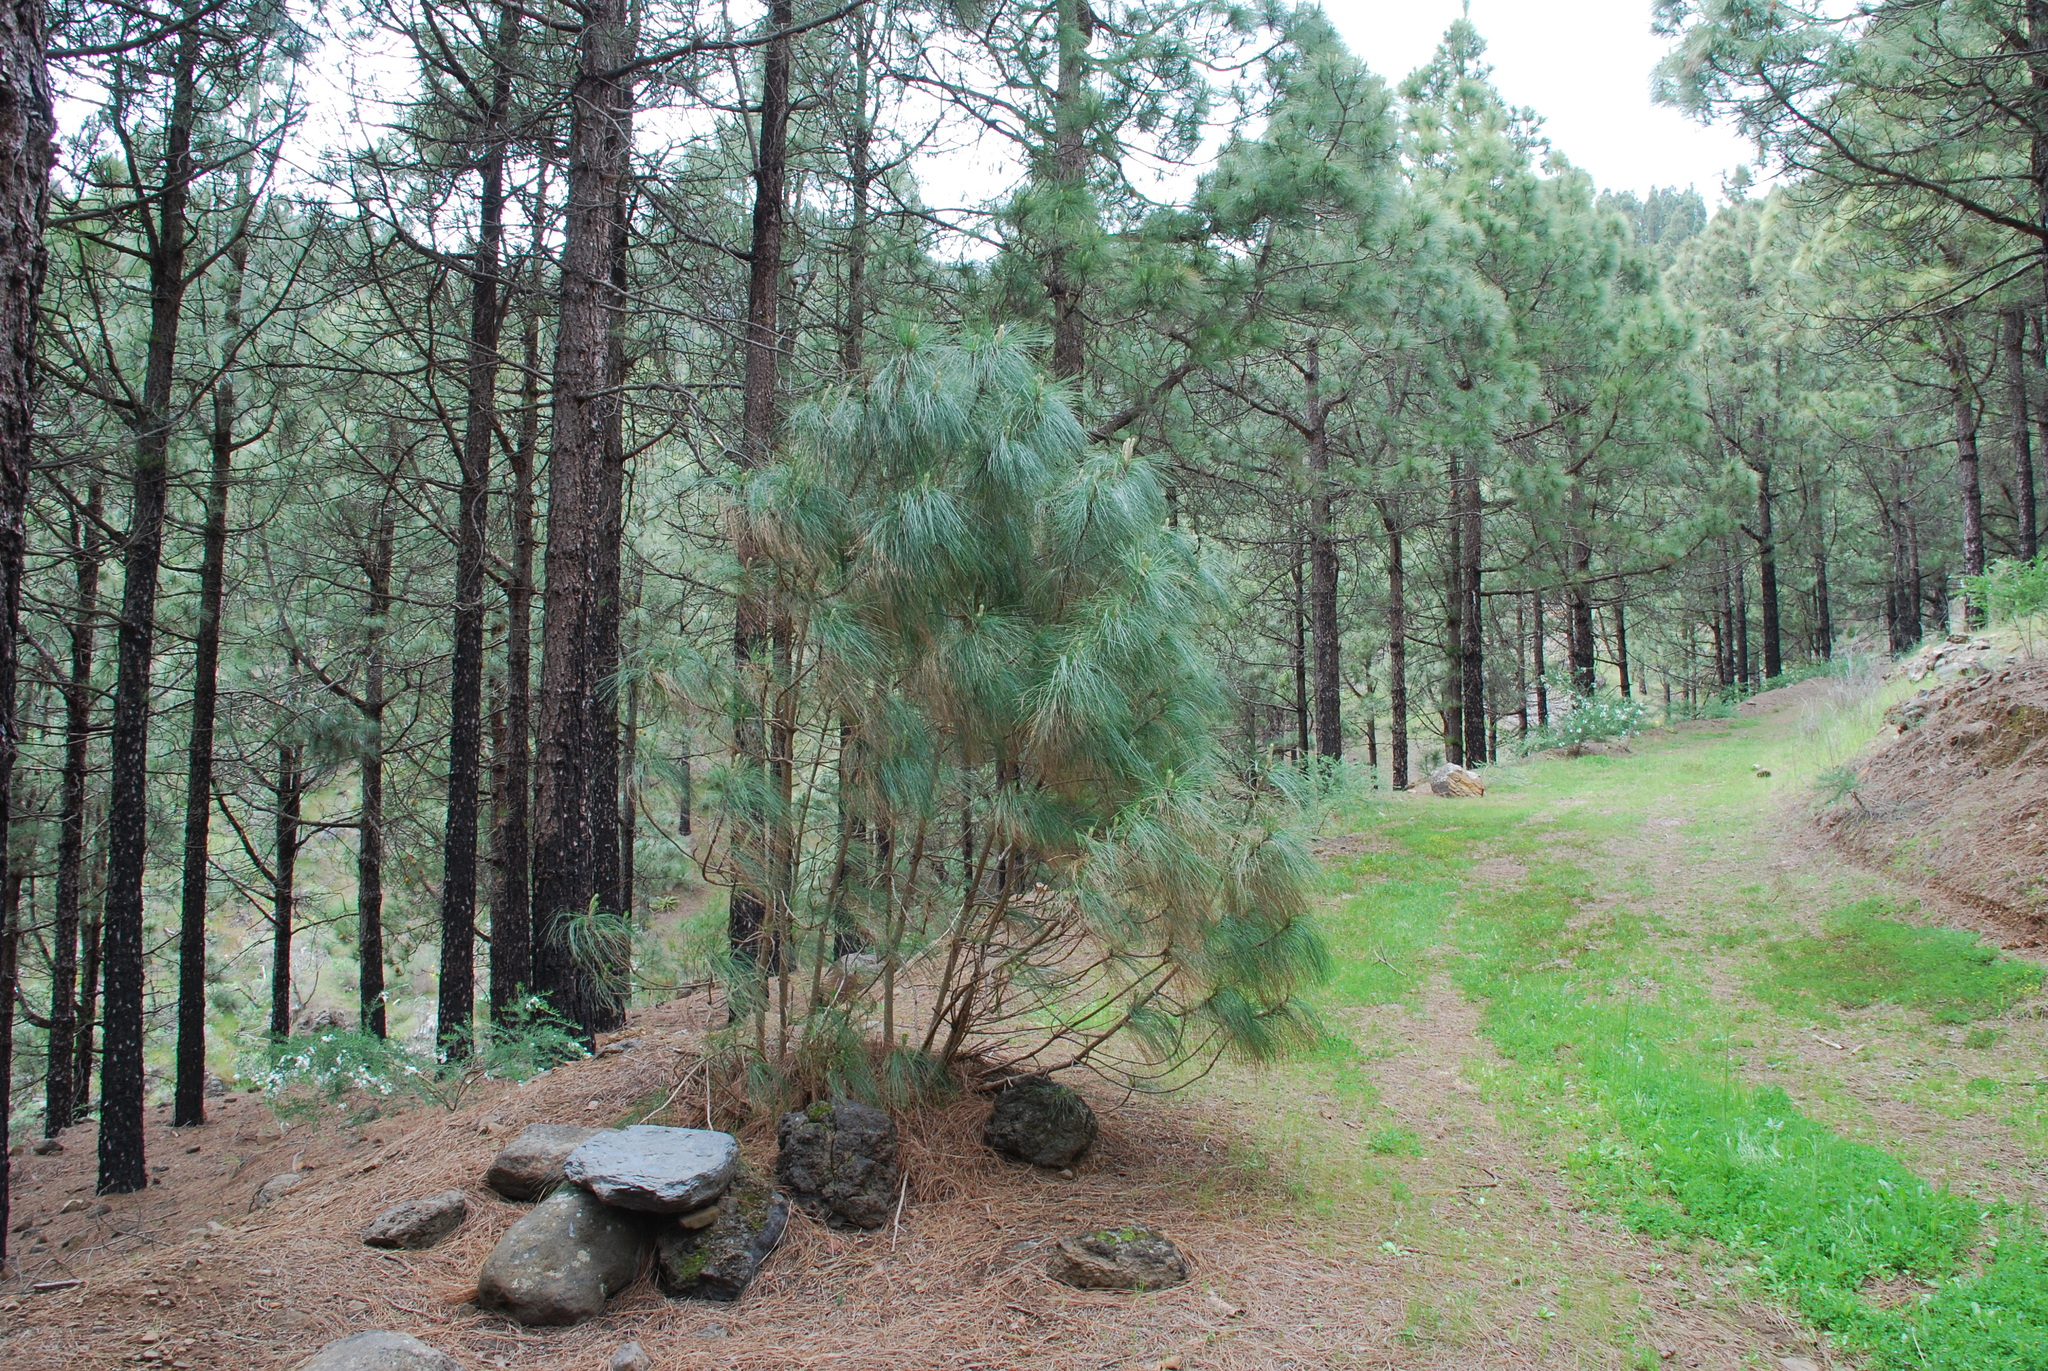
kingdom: Plantae
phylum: Tracheophyta
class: Pinopsida
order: Pinales
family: Pinaceae
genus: Pinus
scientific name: Pinus canariensis
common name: Canary islands pine
